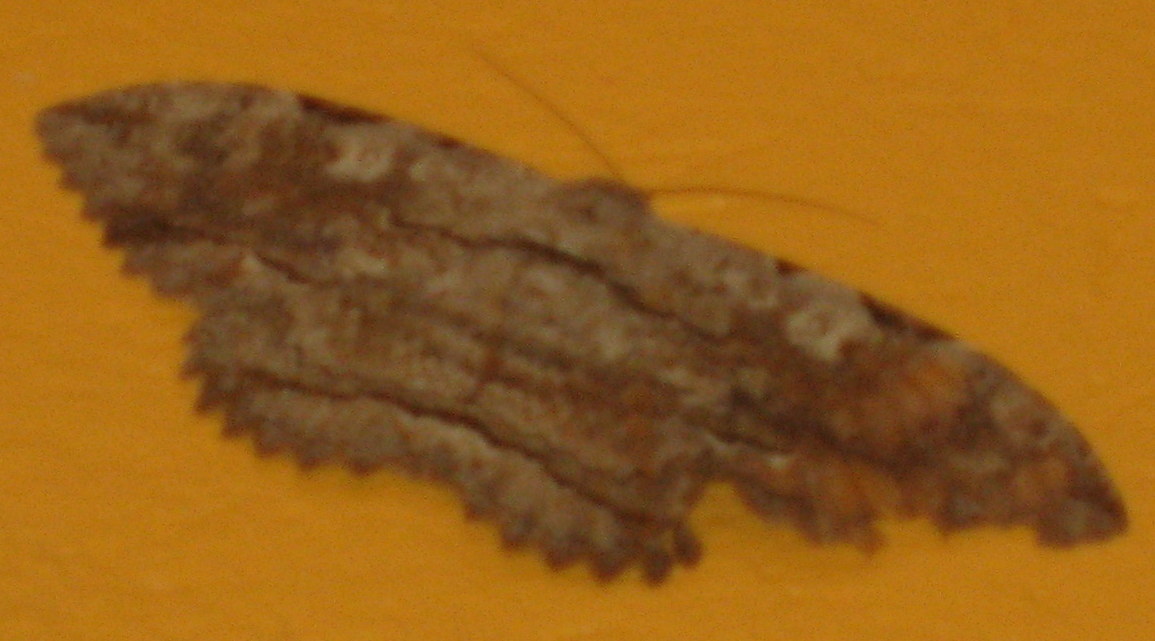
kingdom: Animalia
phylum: Arthropoda
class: Insecta
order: Lepidoptera
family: Erebidae
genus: Thysania
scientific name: Thysania zenobia
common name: Owl moth
